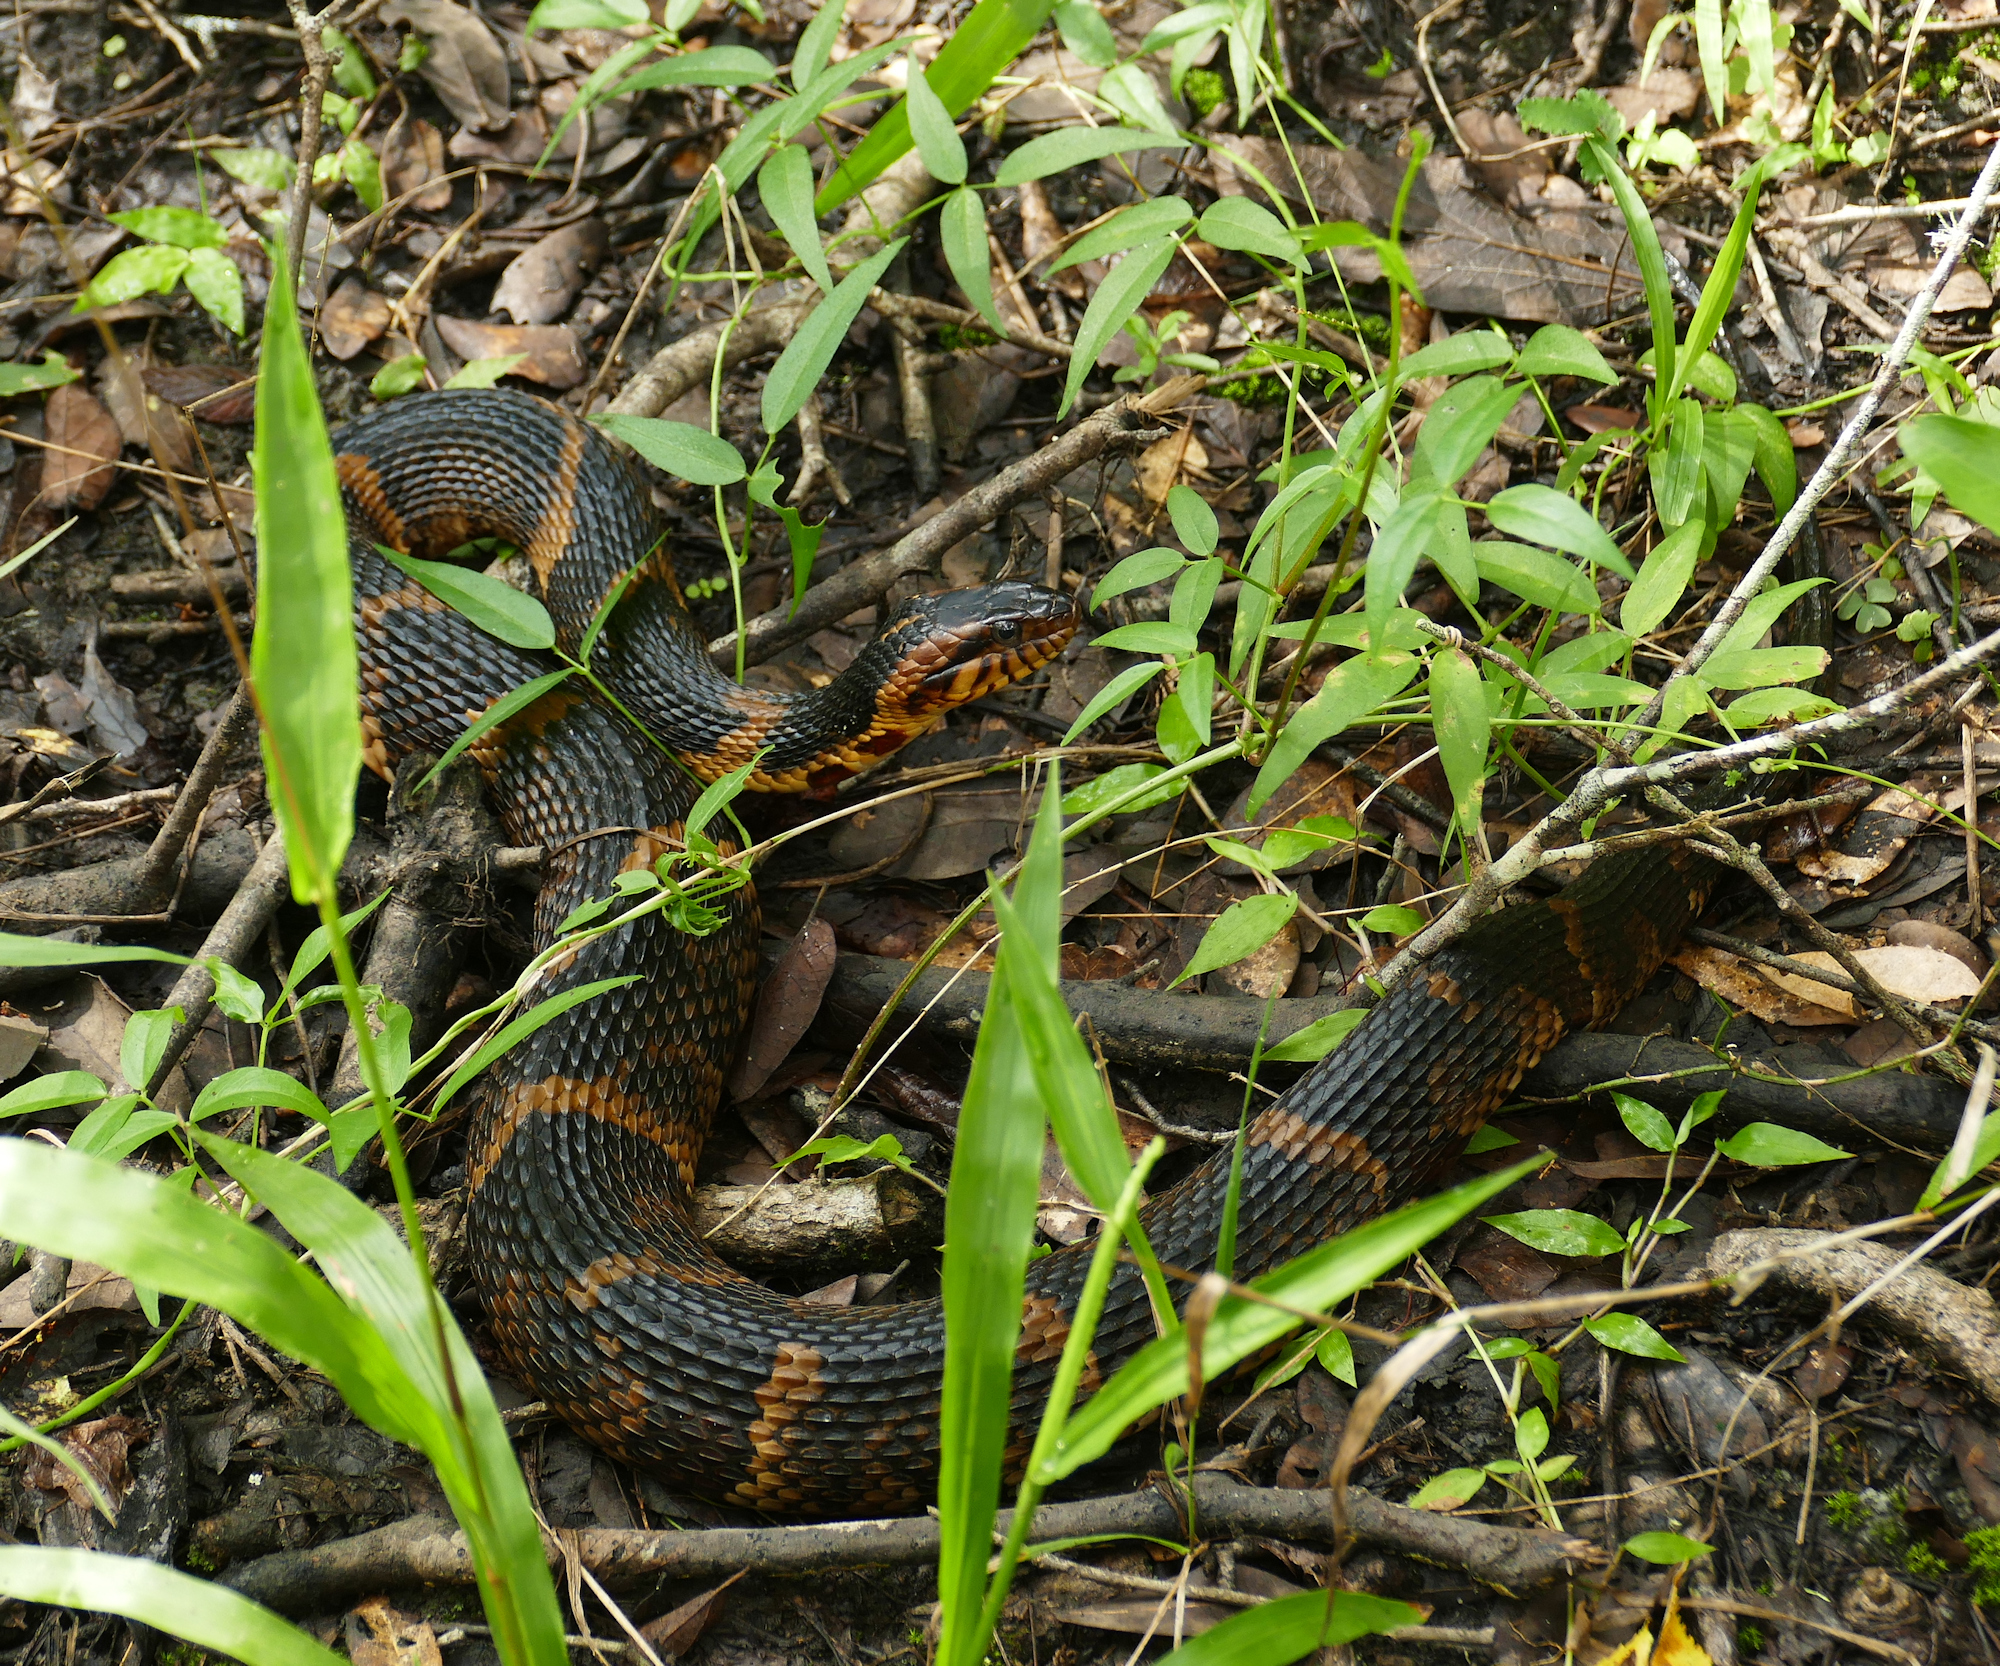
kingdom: Animalia
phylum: Chordata
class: Squamata
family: Colubridae
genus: Nerodia
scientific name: Nerodia fasciata
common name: Southern water snake
